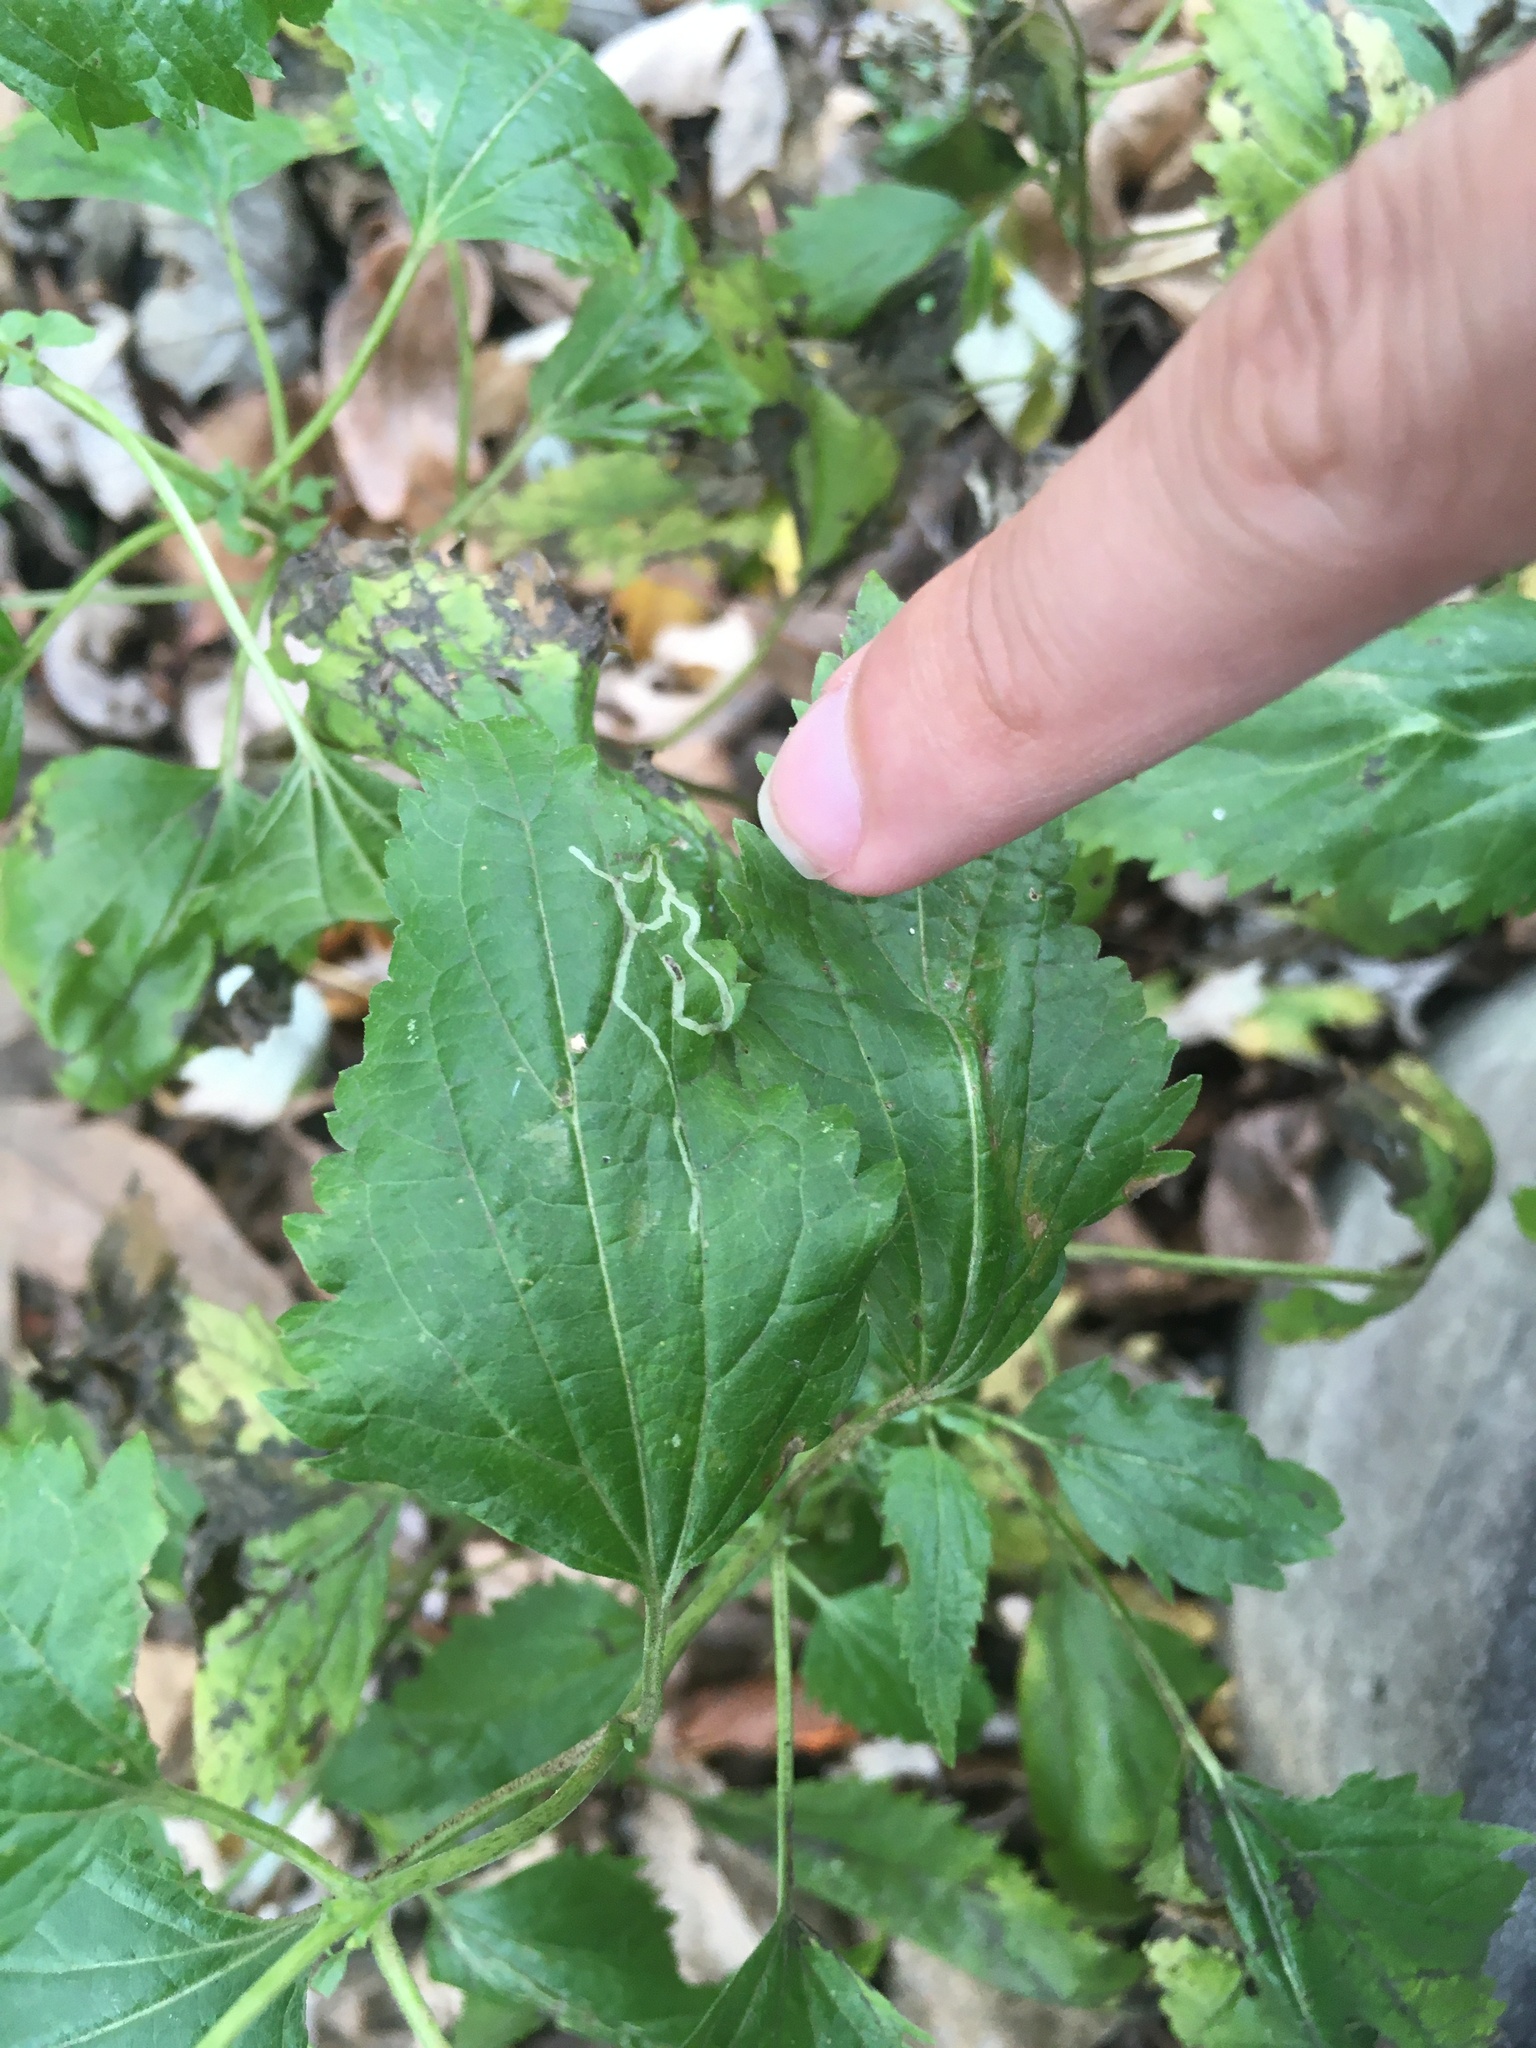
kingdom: Animalia
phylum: Arthropoda
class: Insecta
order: Diptera
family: Agromyzidae
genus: Liriomyza
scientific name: Liriomyza
